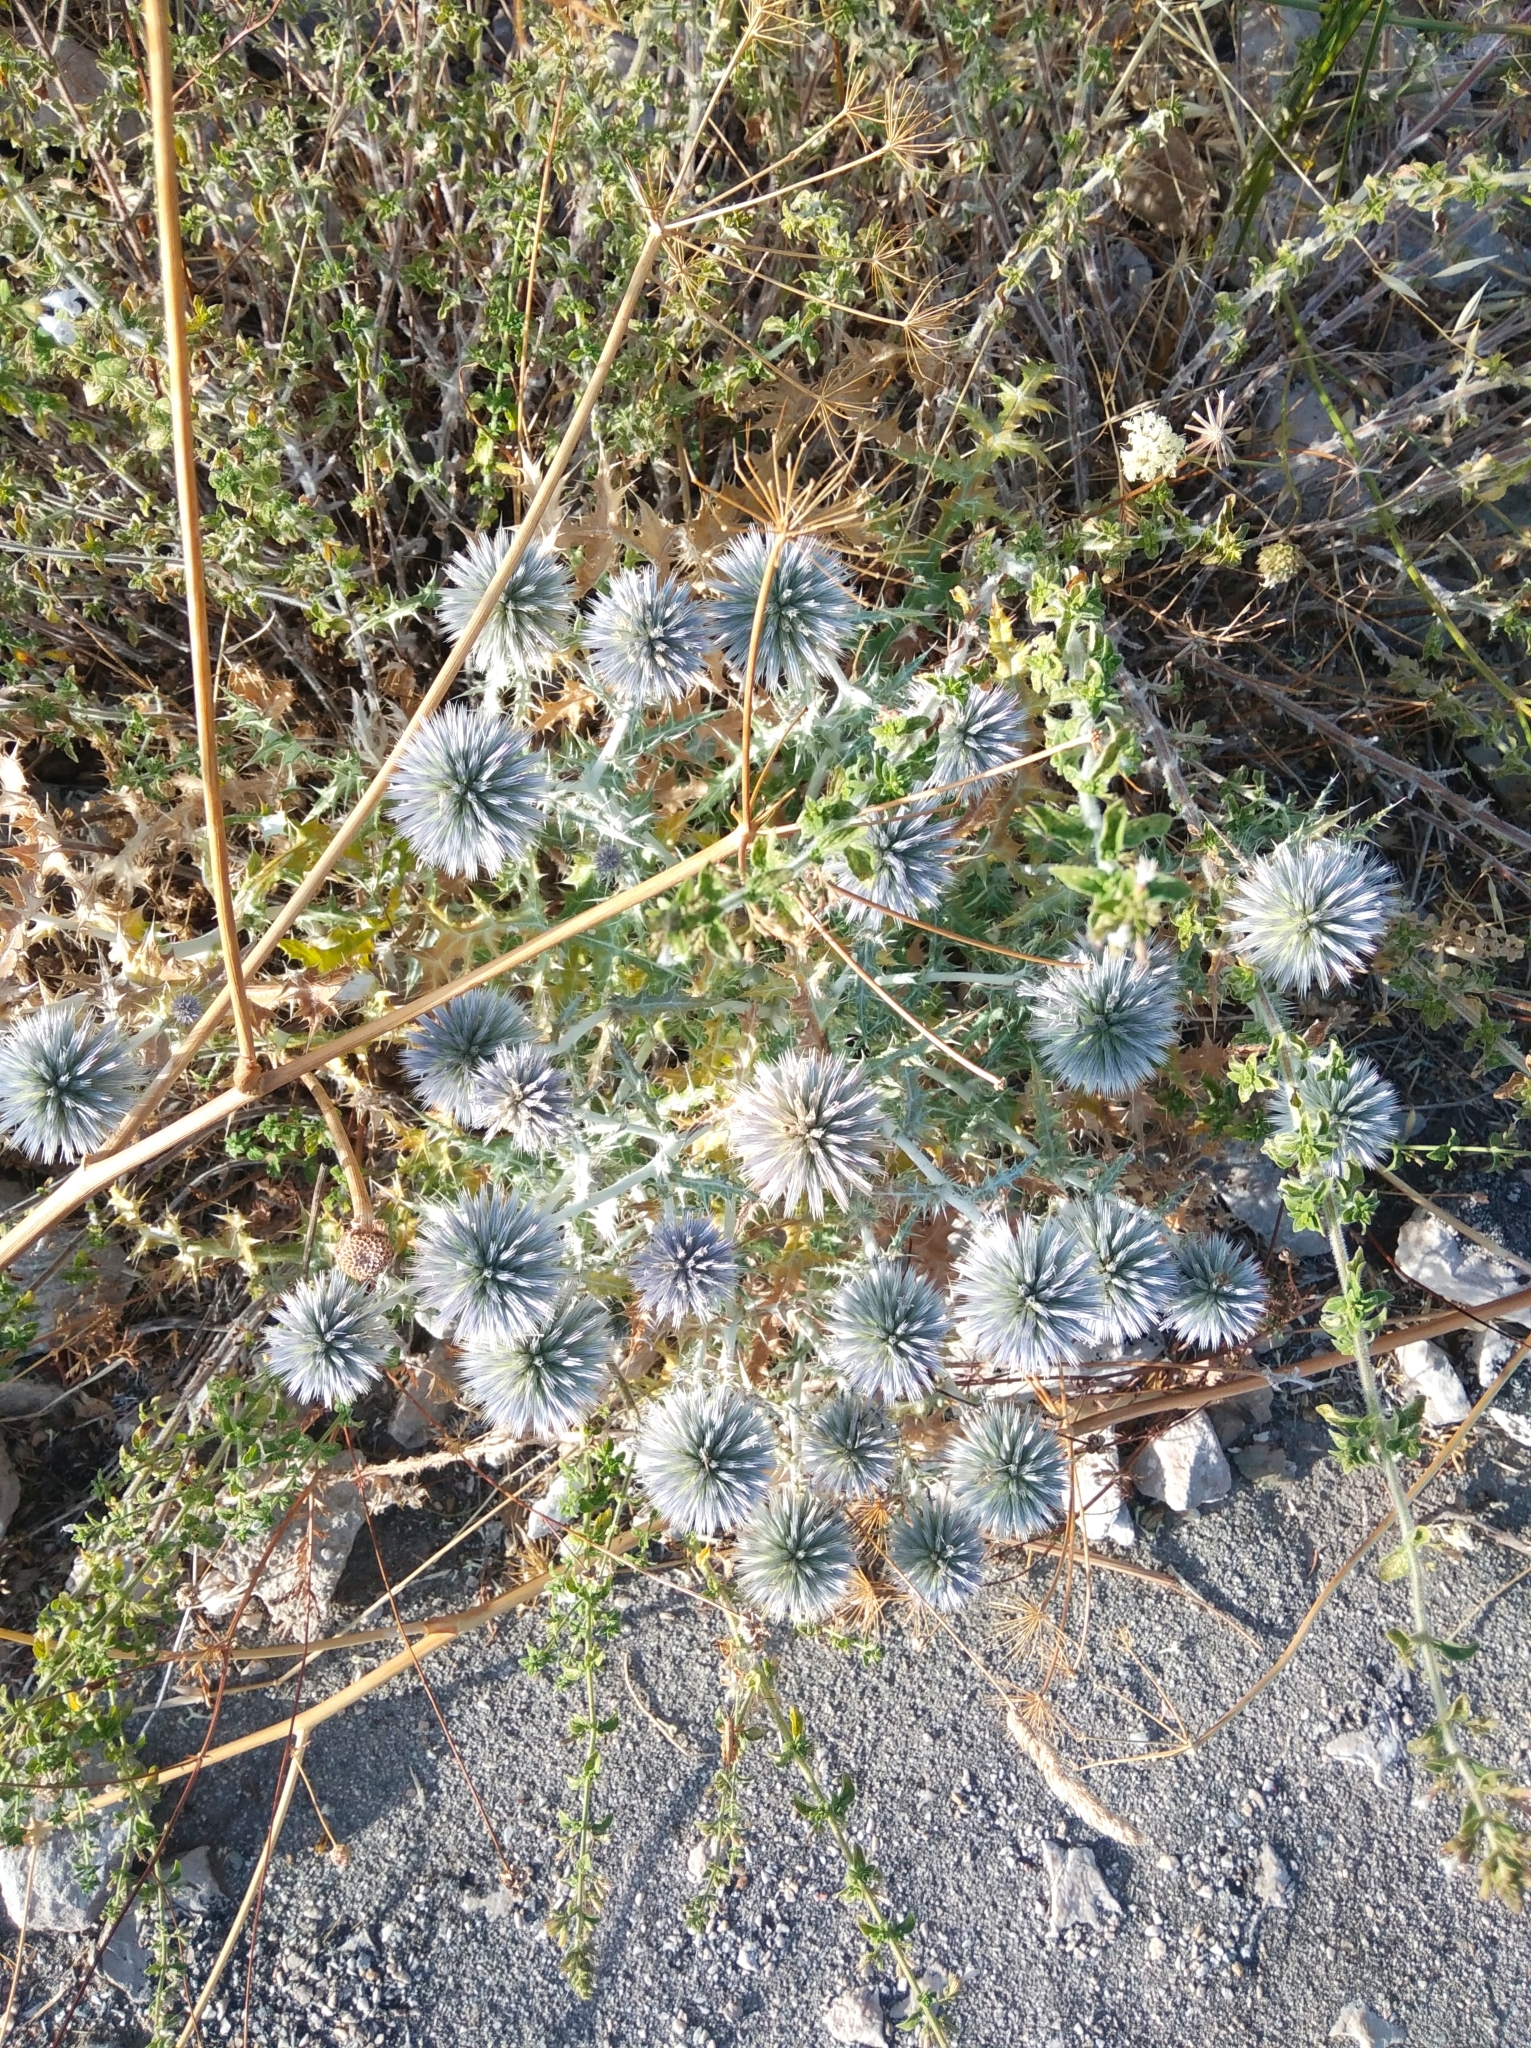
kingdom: Plantae
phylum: Tracheophyta
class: Magnoliopsida
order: Asterales
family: Asteraceae
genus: Echinops
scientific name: Echinops ritro
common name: Globe thistle
